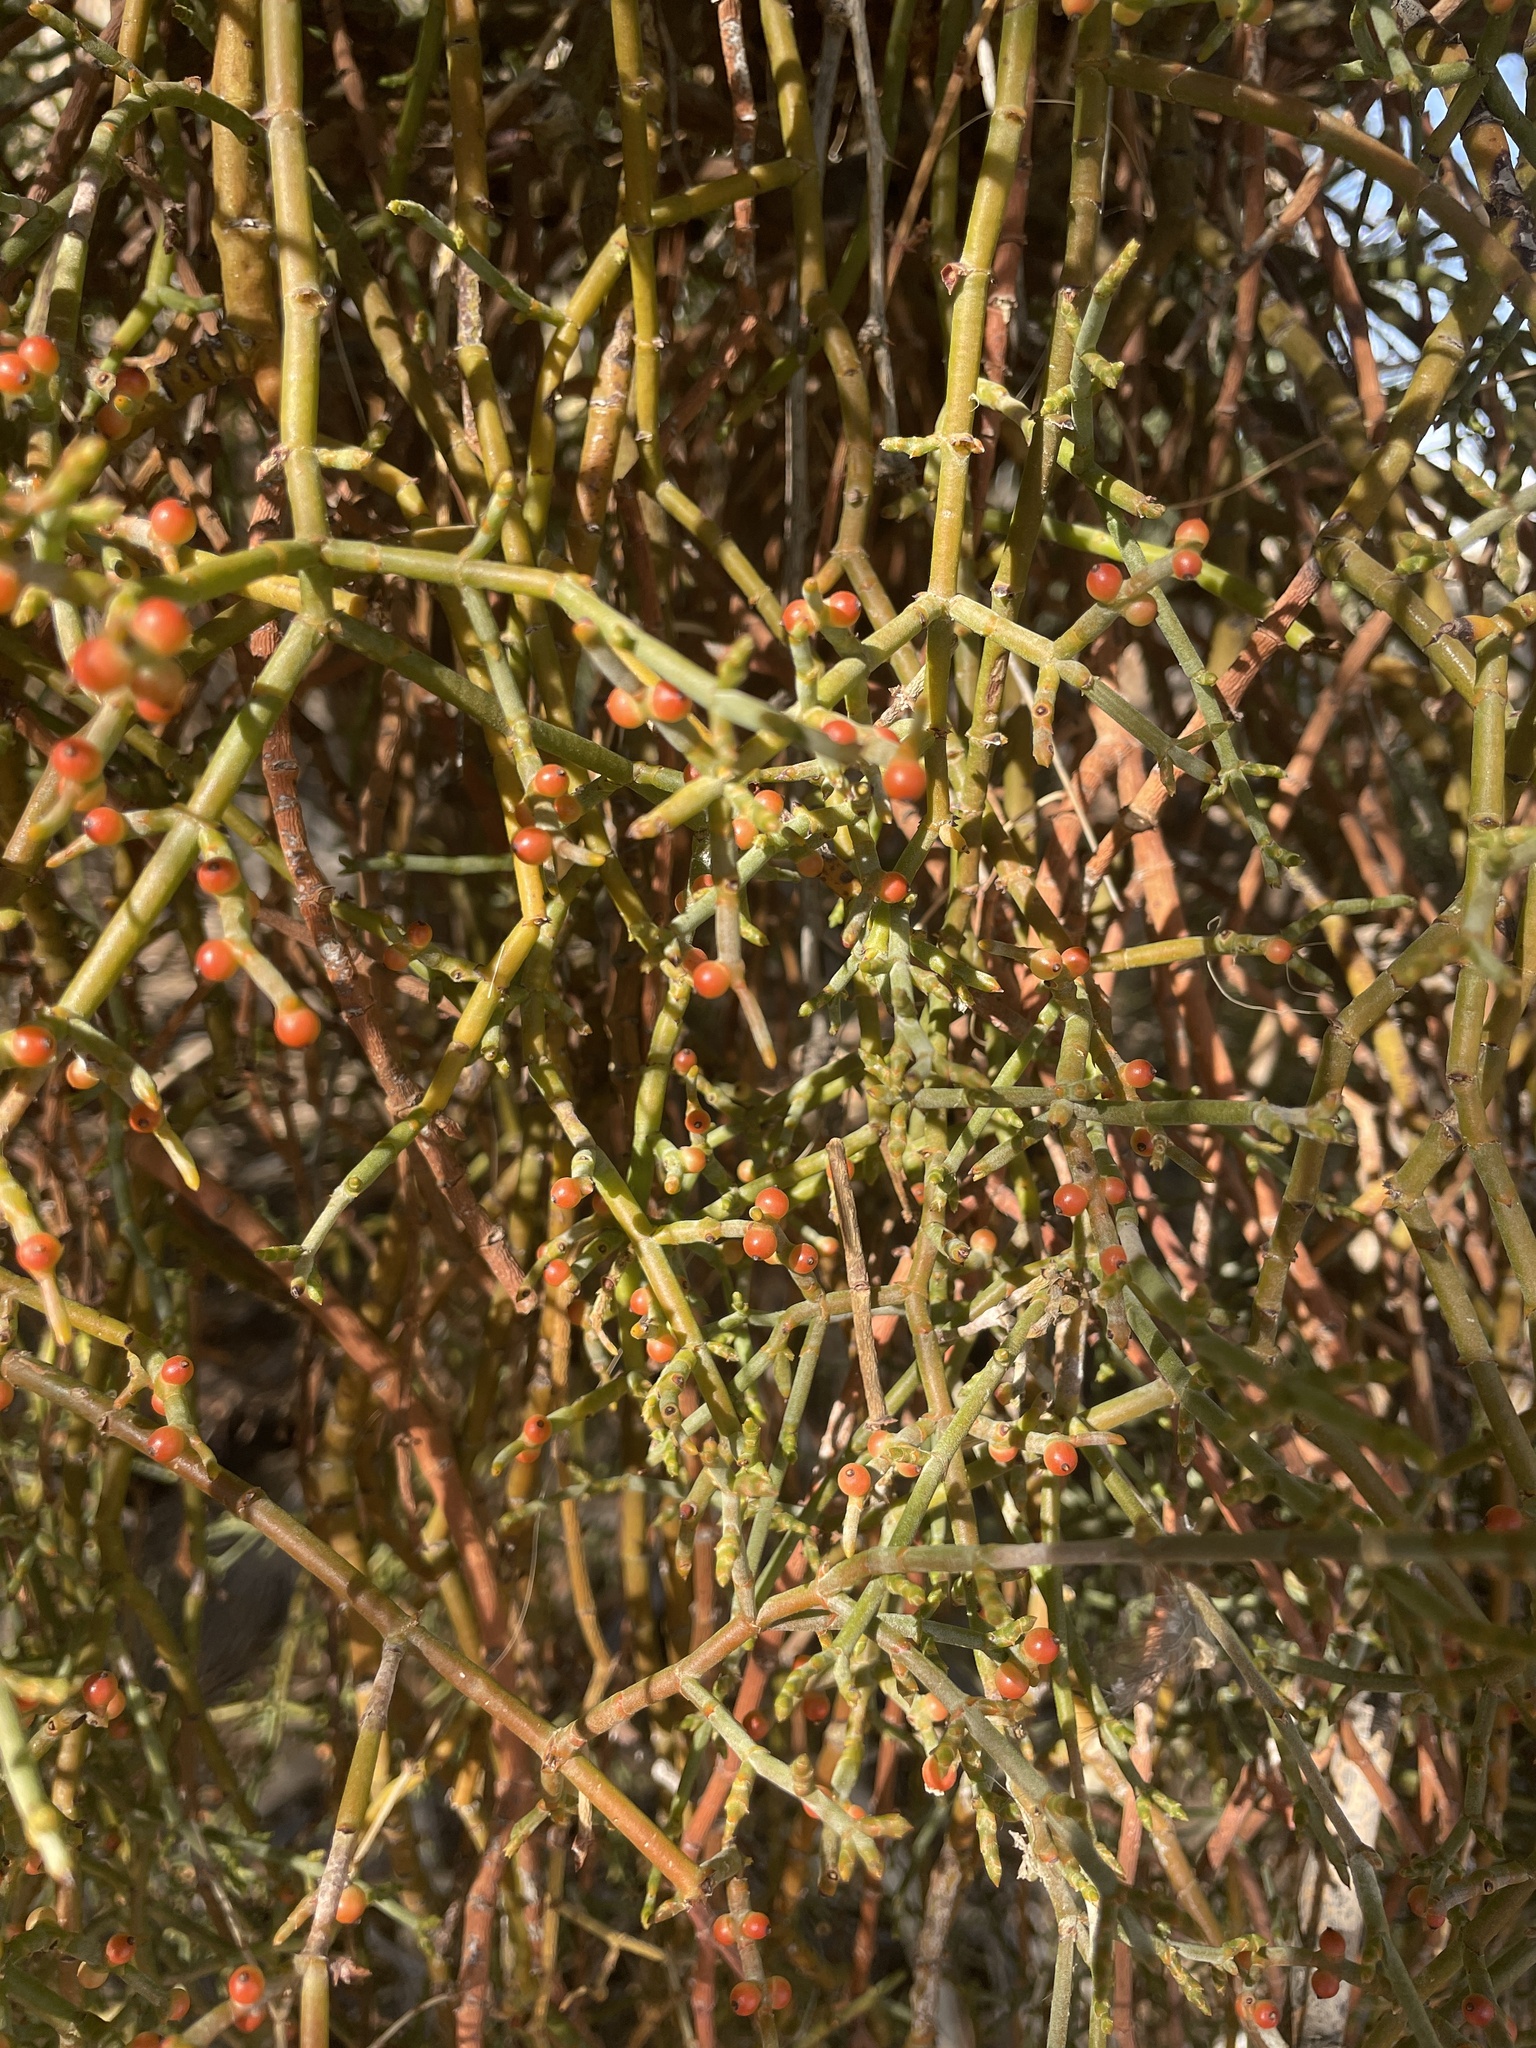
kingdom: Plantae
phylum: Tracheophyta
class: Magnoliopsida
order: Santalales
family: Viscaceae
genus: Phoradendron
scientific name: Phoradendron californicum
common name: Acacia mistletoe
